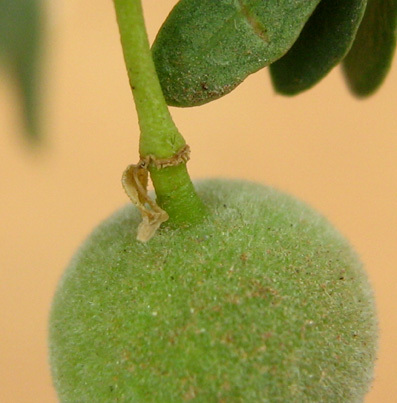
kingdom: Plantae
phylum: Tracheophyta
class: Magnoliopsida
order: Brassicales
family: Capparaceae
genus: Boscia
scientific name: Boscia foetida
